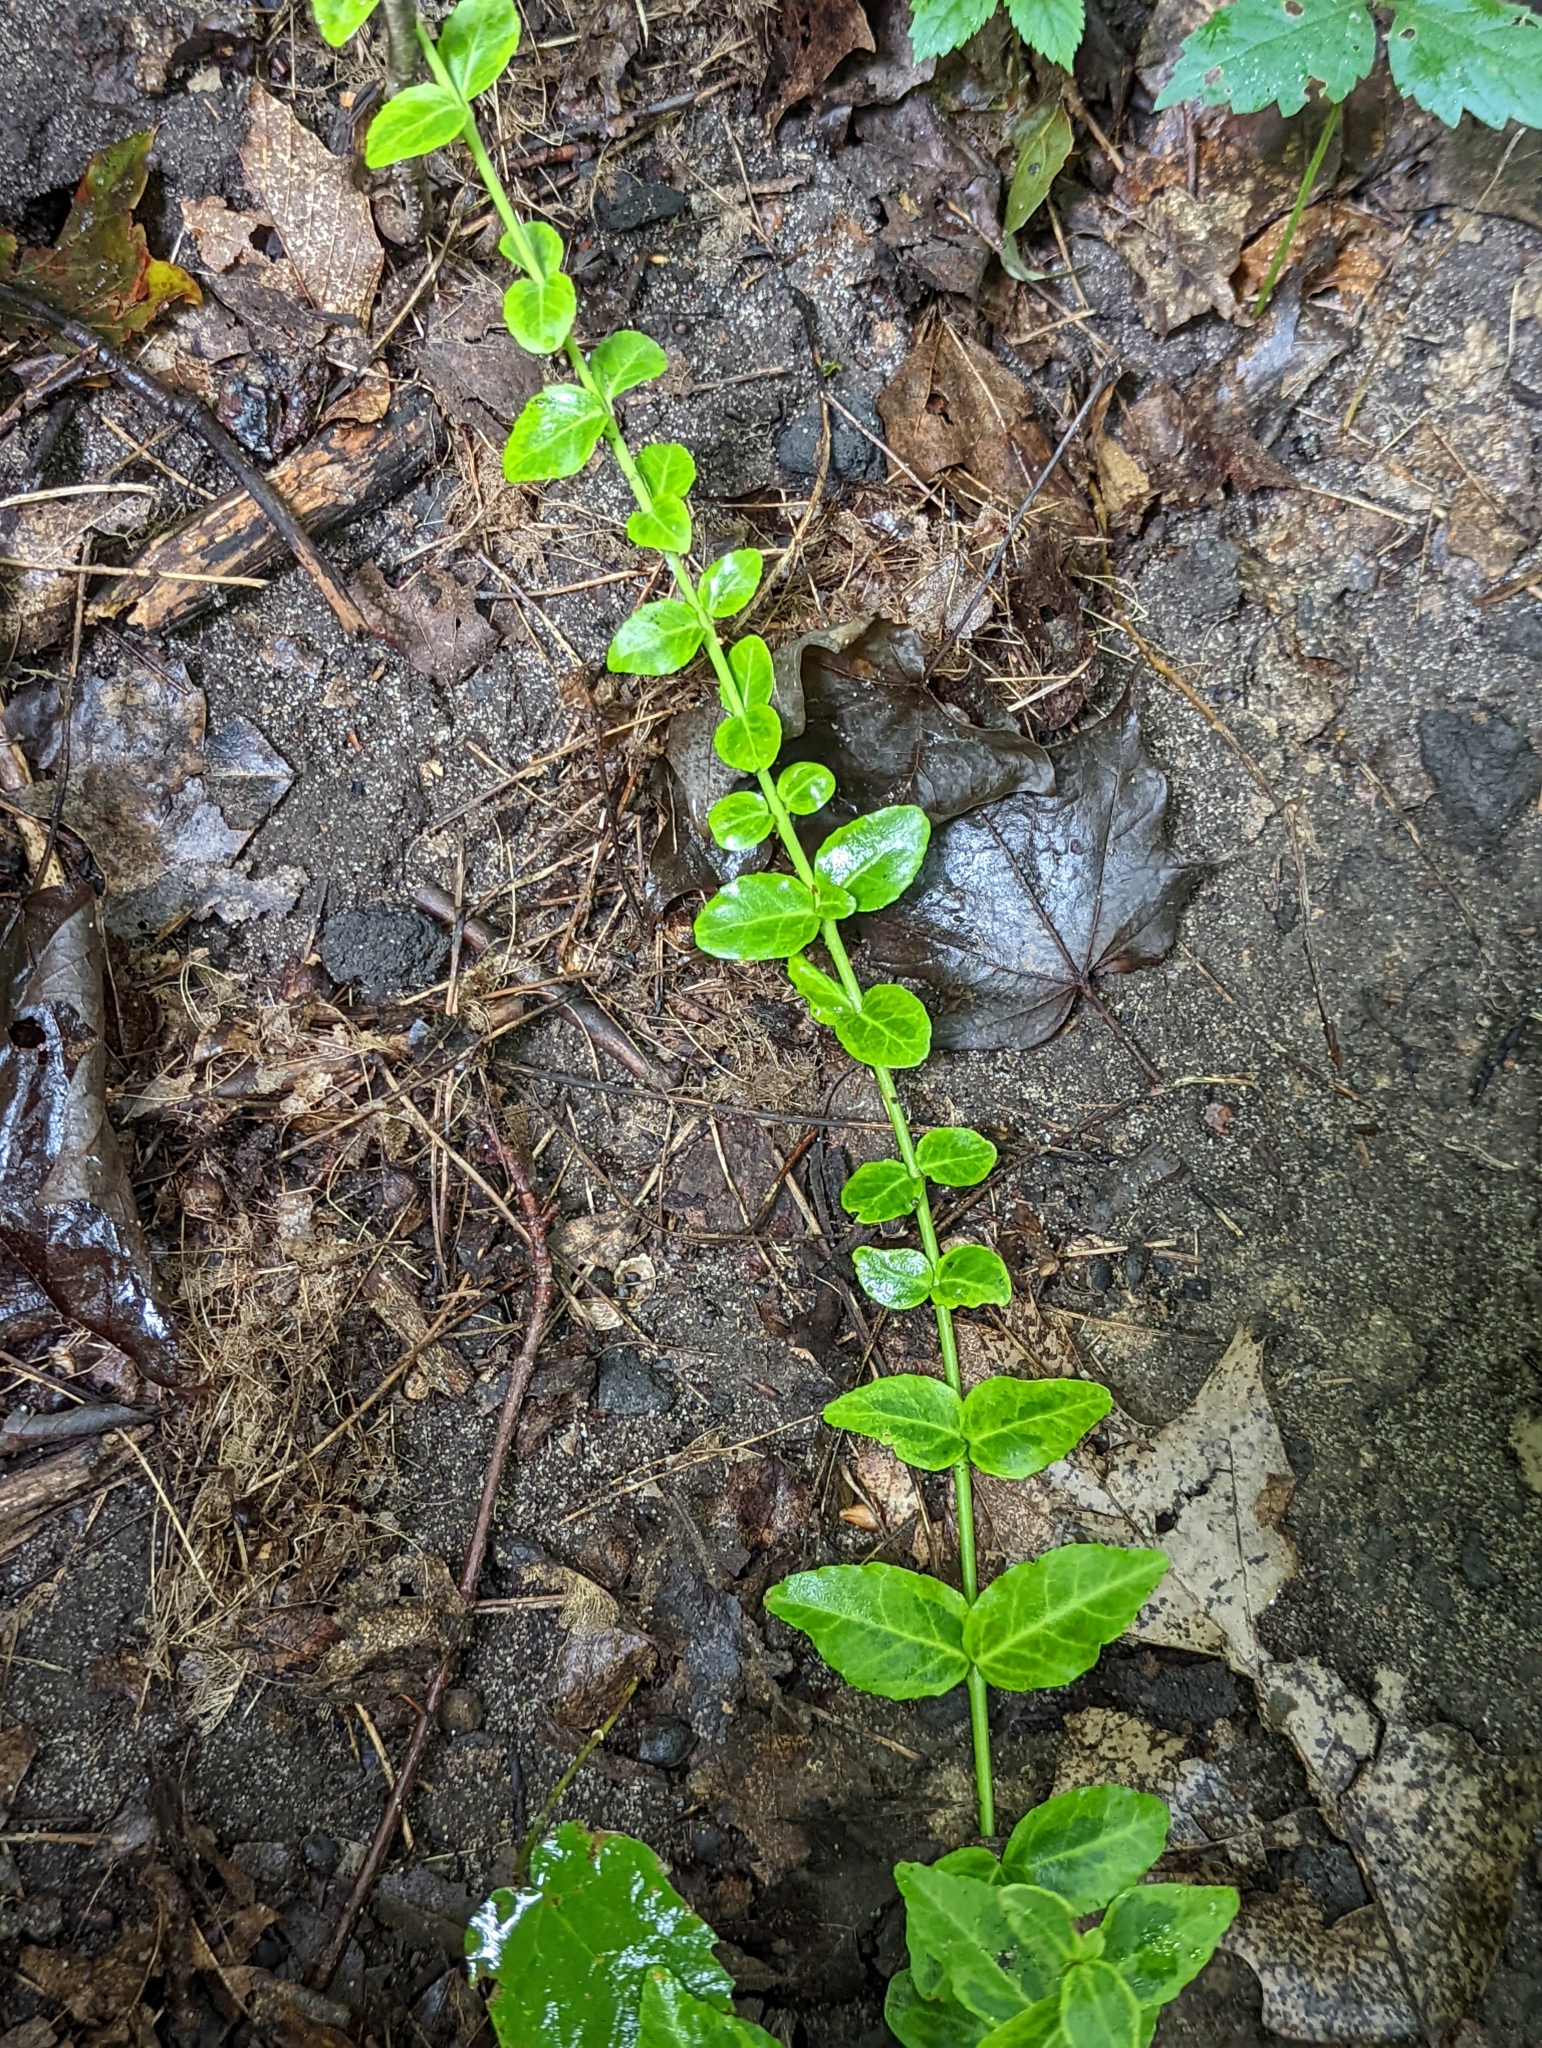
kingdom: Plantae
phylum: Tracheophyta
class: Magnoliopsida
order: Celastrales
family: Celastraceae
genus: Euonymus
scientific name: Euonymus fortunei
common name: Climbing euonymus
